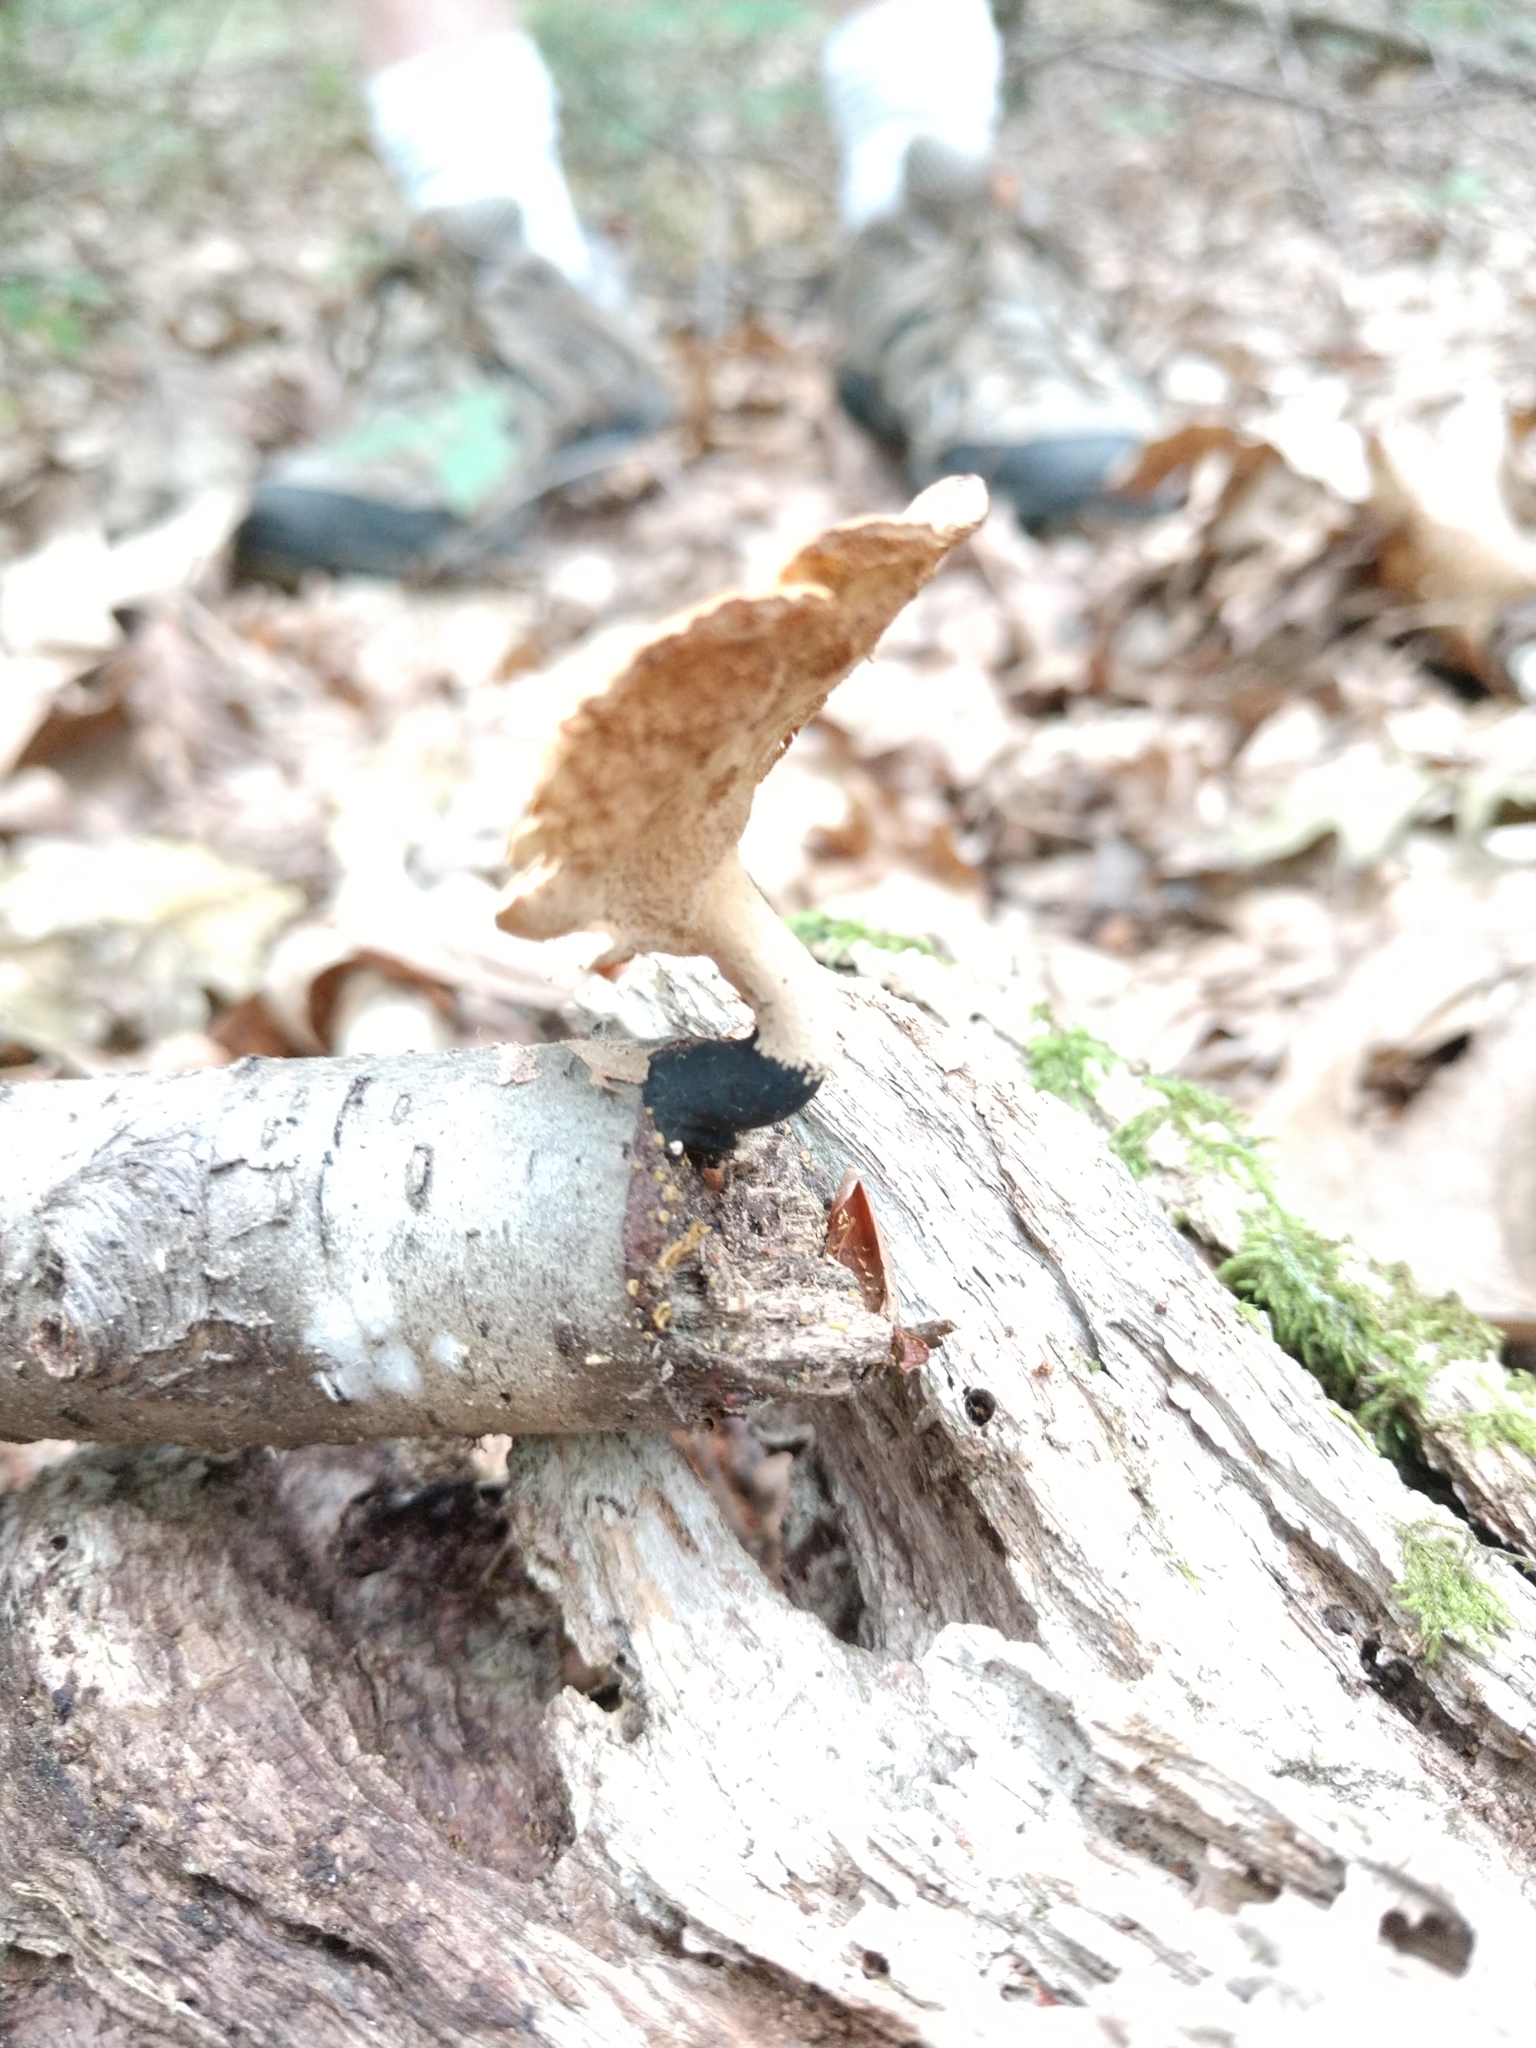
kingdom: Fungi
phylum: Basidiomycota
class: Agaricomycetes
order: Polyporales
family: Polyporaceae
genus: Cerioporus
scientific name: Cerioporus leptocephalus
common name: Blackfoot polypore
